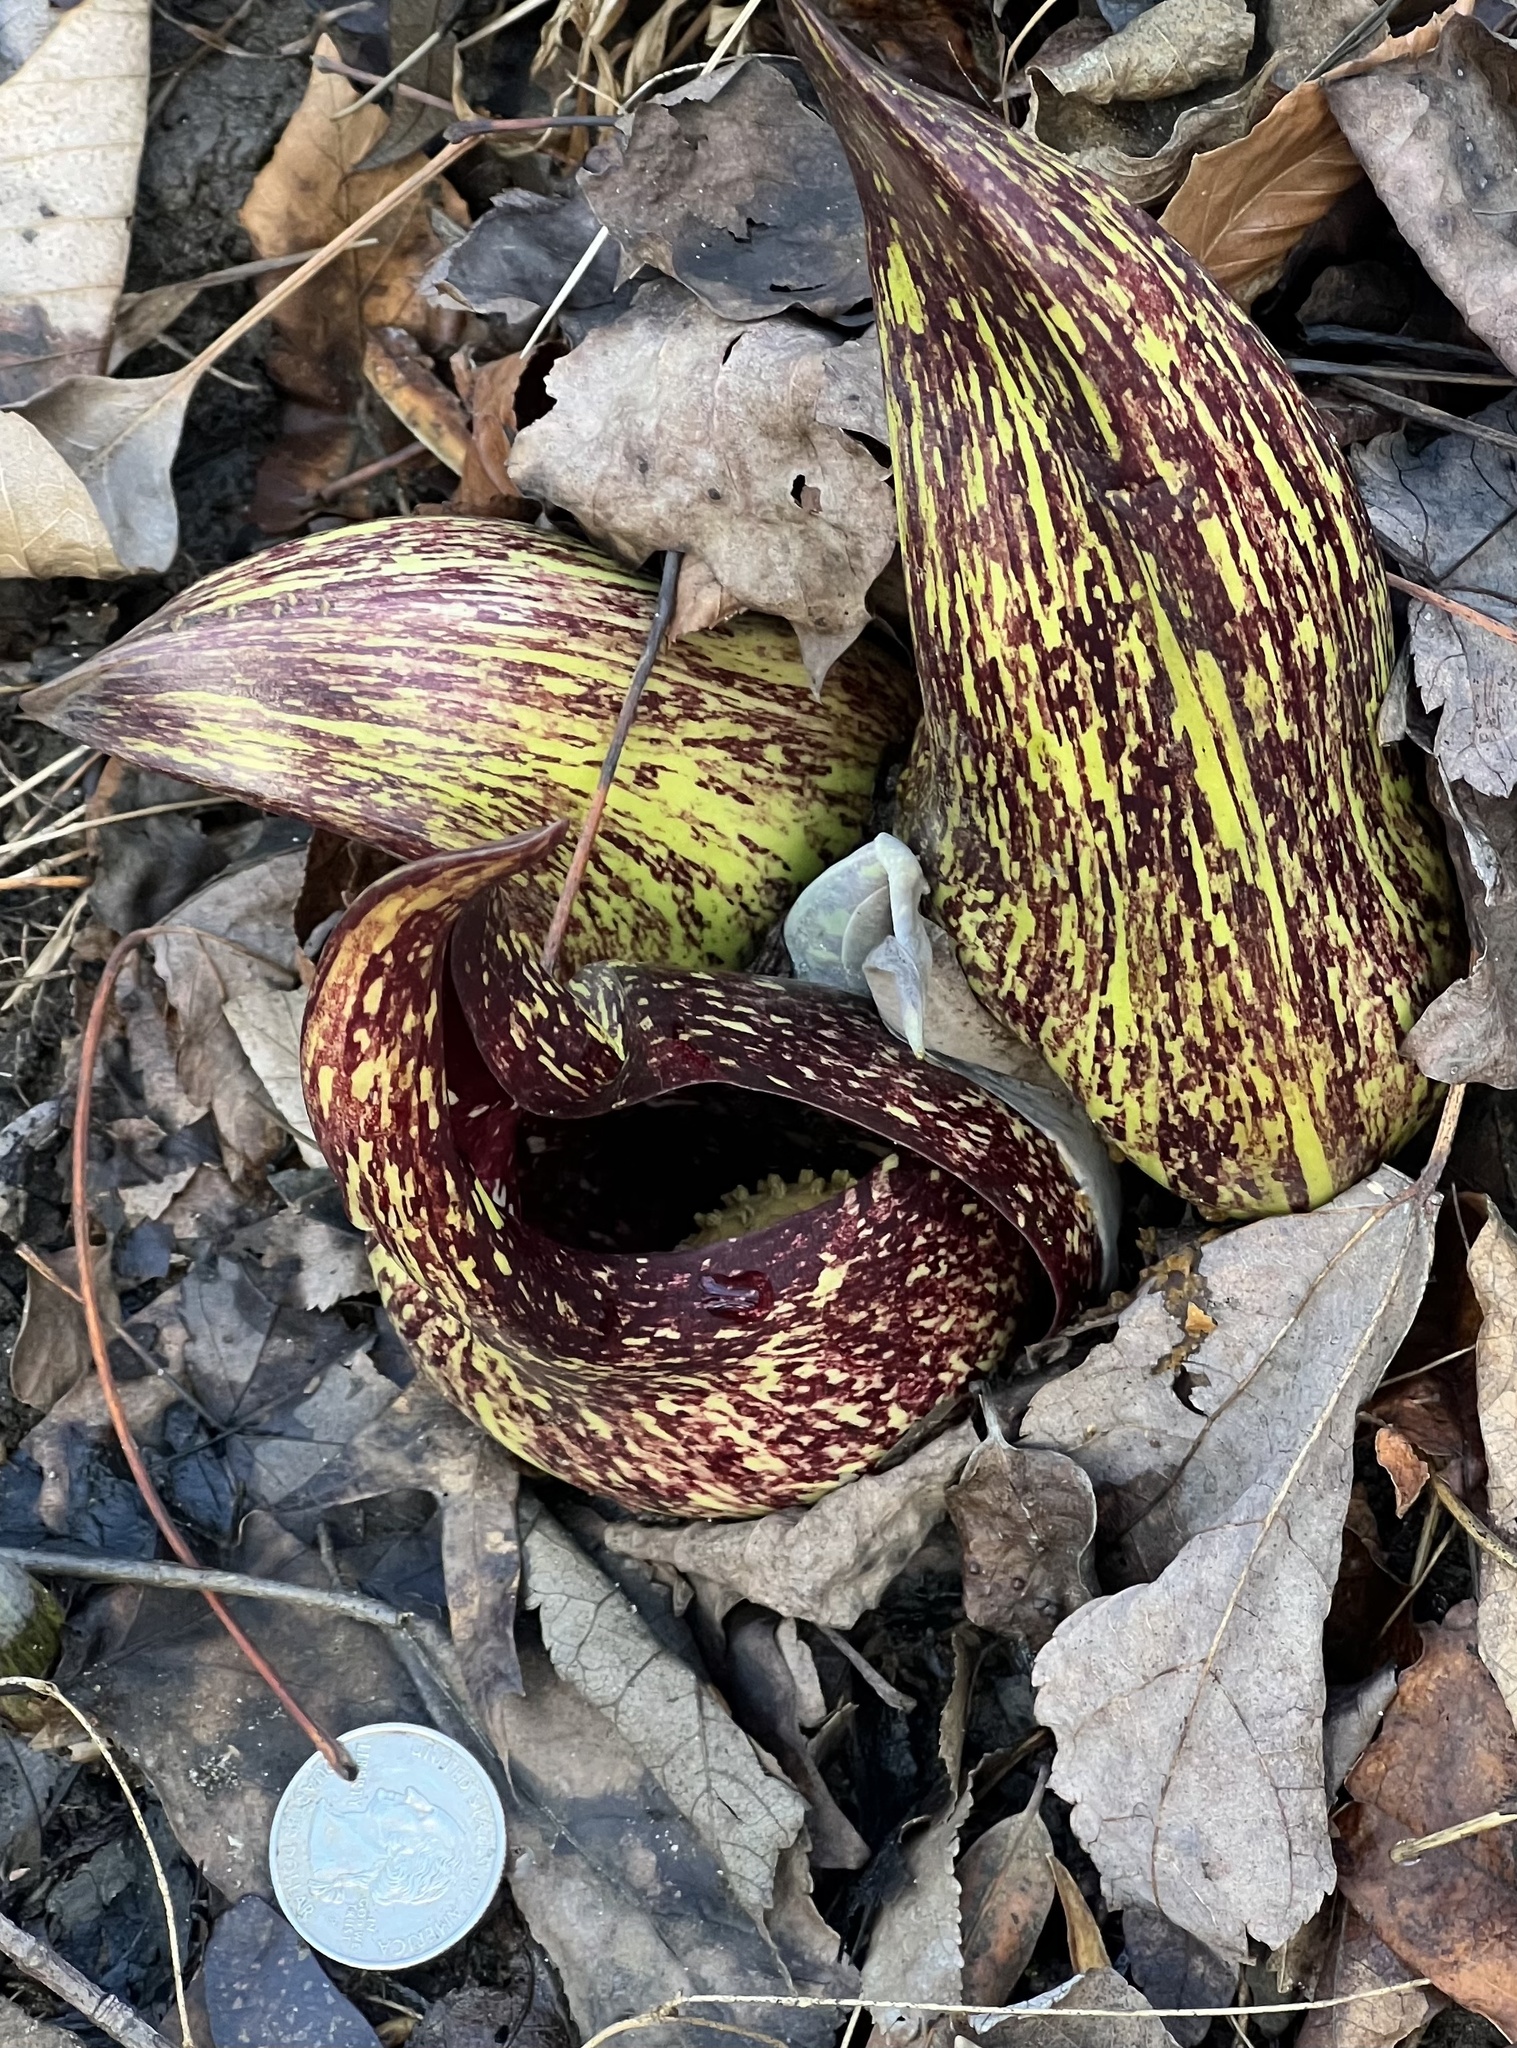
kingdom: Plantae
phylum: Tracheophyta
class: Liliopsida
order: Alismatales
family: Araceae
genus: Symplocarpus
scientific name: Symplocarpus foetidus
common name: Eastern skunk cabbage
